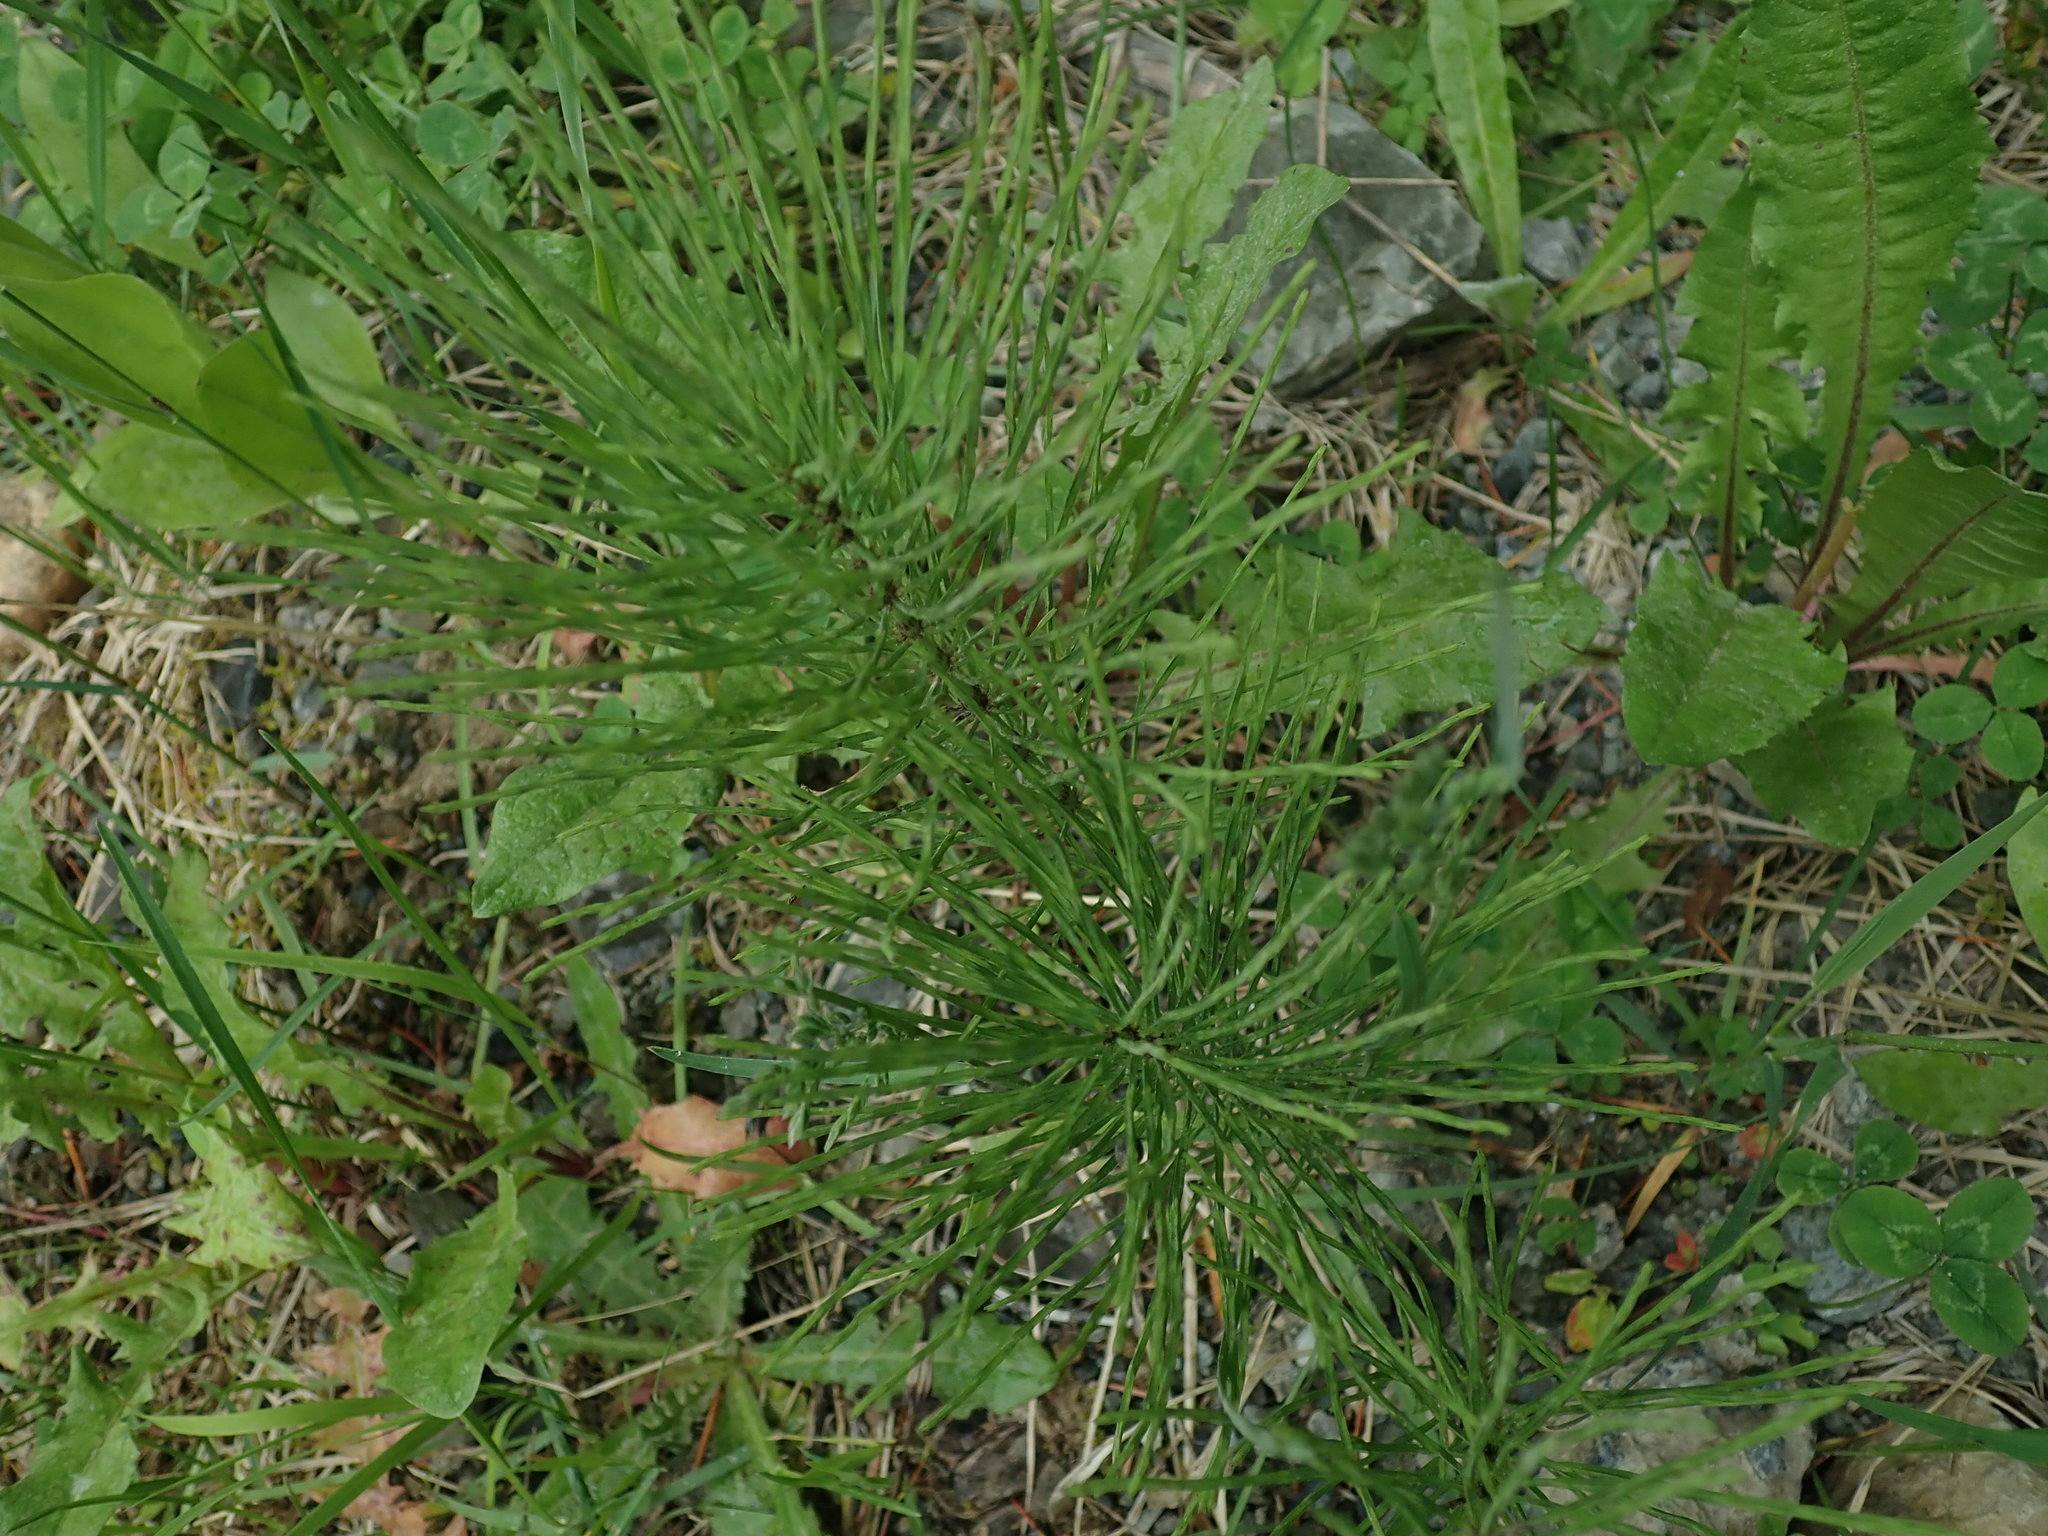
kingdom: Plantae
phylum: Tracheophyta
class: Polypodiopsida
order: Equisetales
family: Equisetaceae
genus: Equisetum
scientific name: Equisetum arvense
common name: Field horsetail
